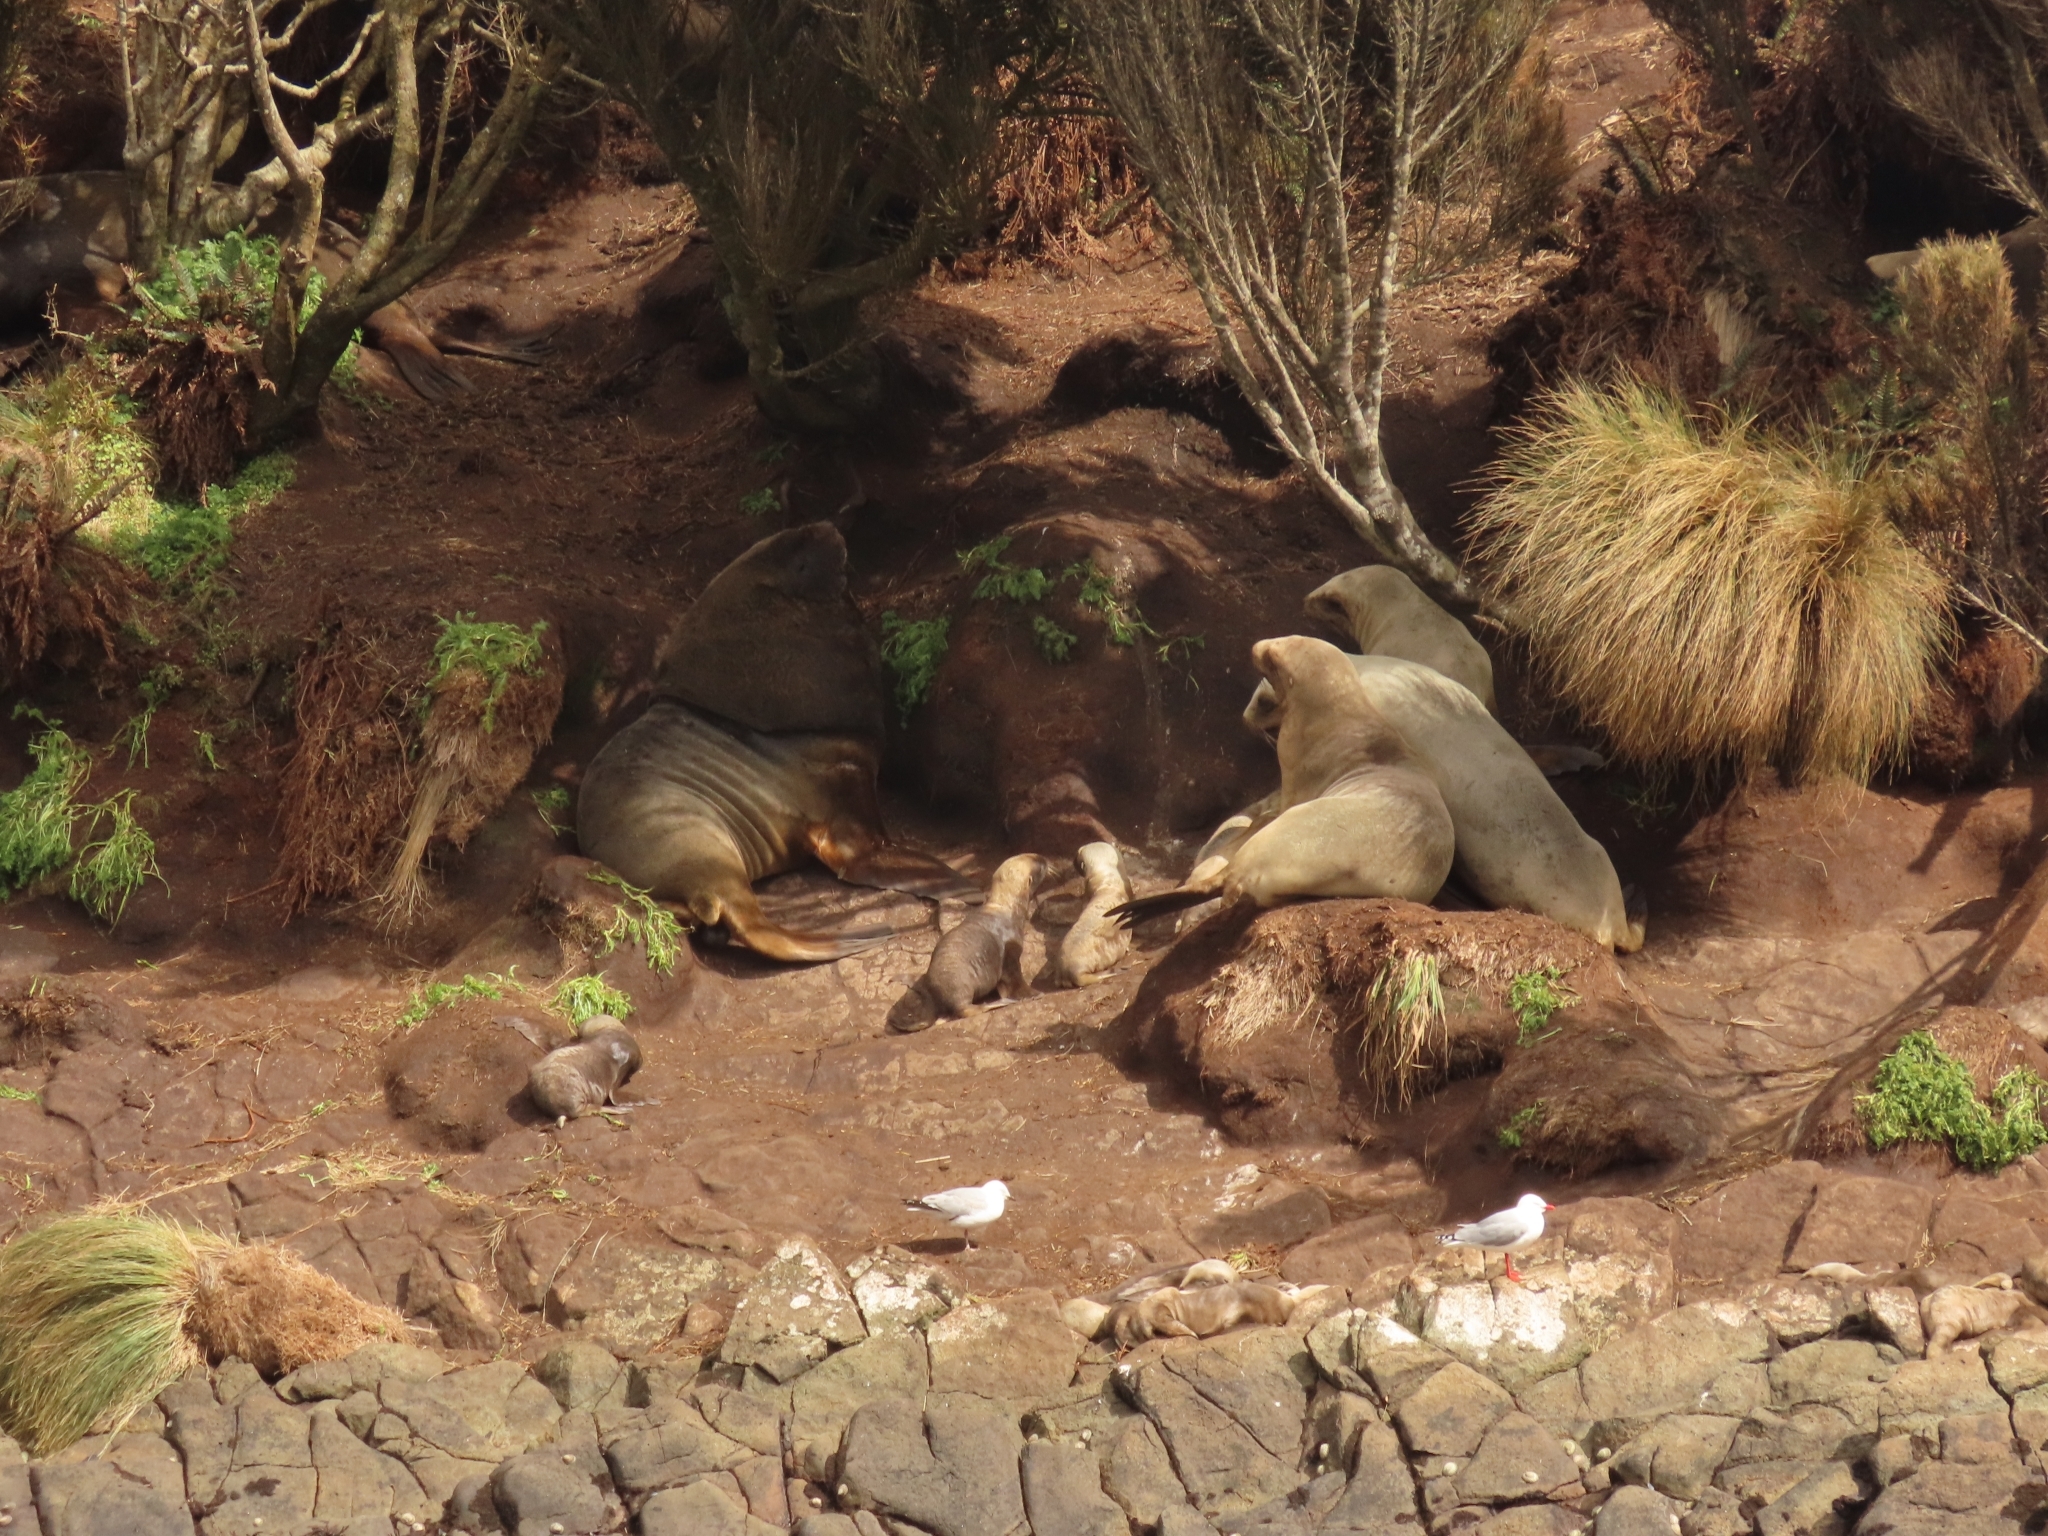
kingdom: Animalia
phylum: Chordata
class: Mammalia
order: Carnivora
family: Otariidae
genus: Phocarctos
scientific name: Phocarctos hookeri
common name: New zealand sea lion
